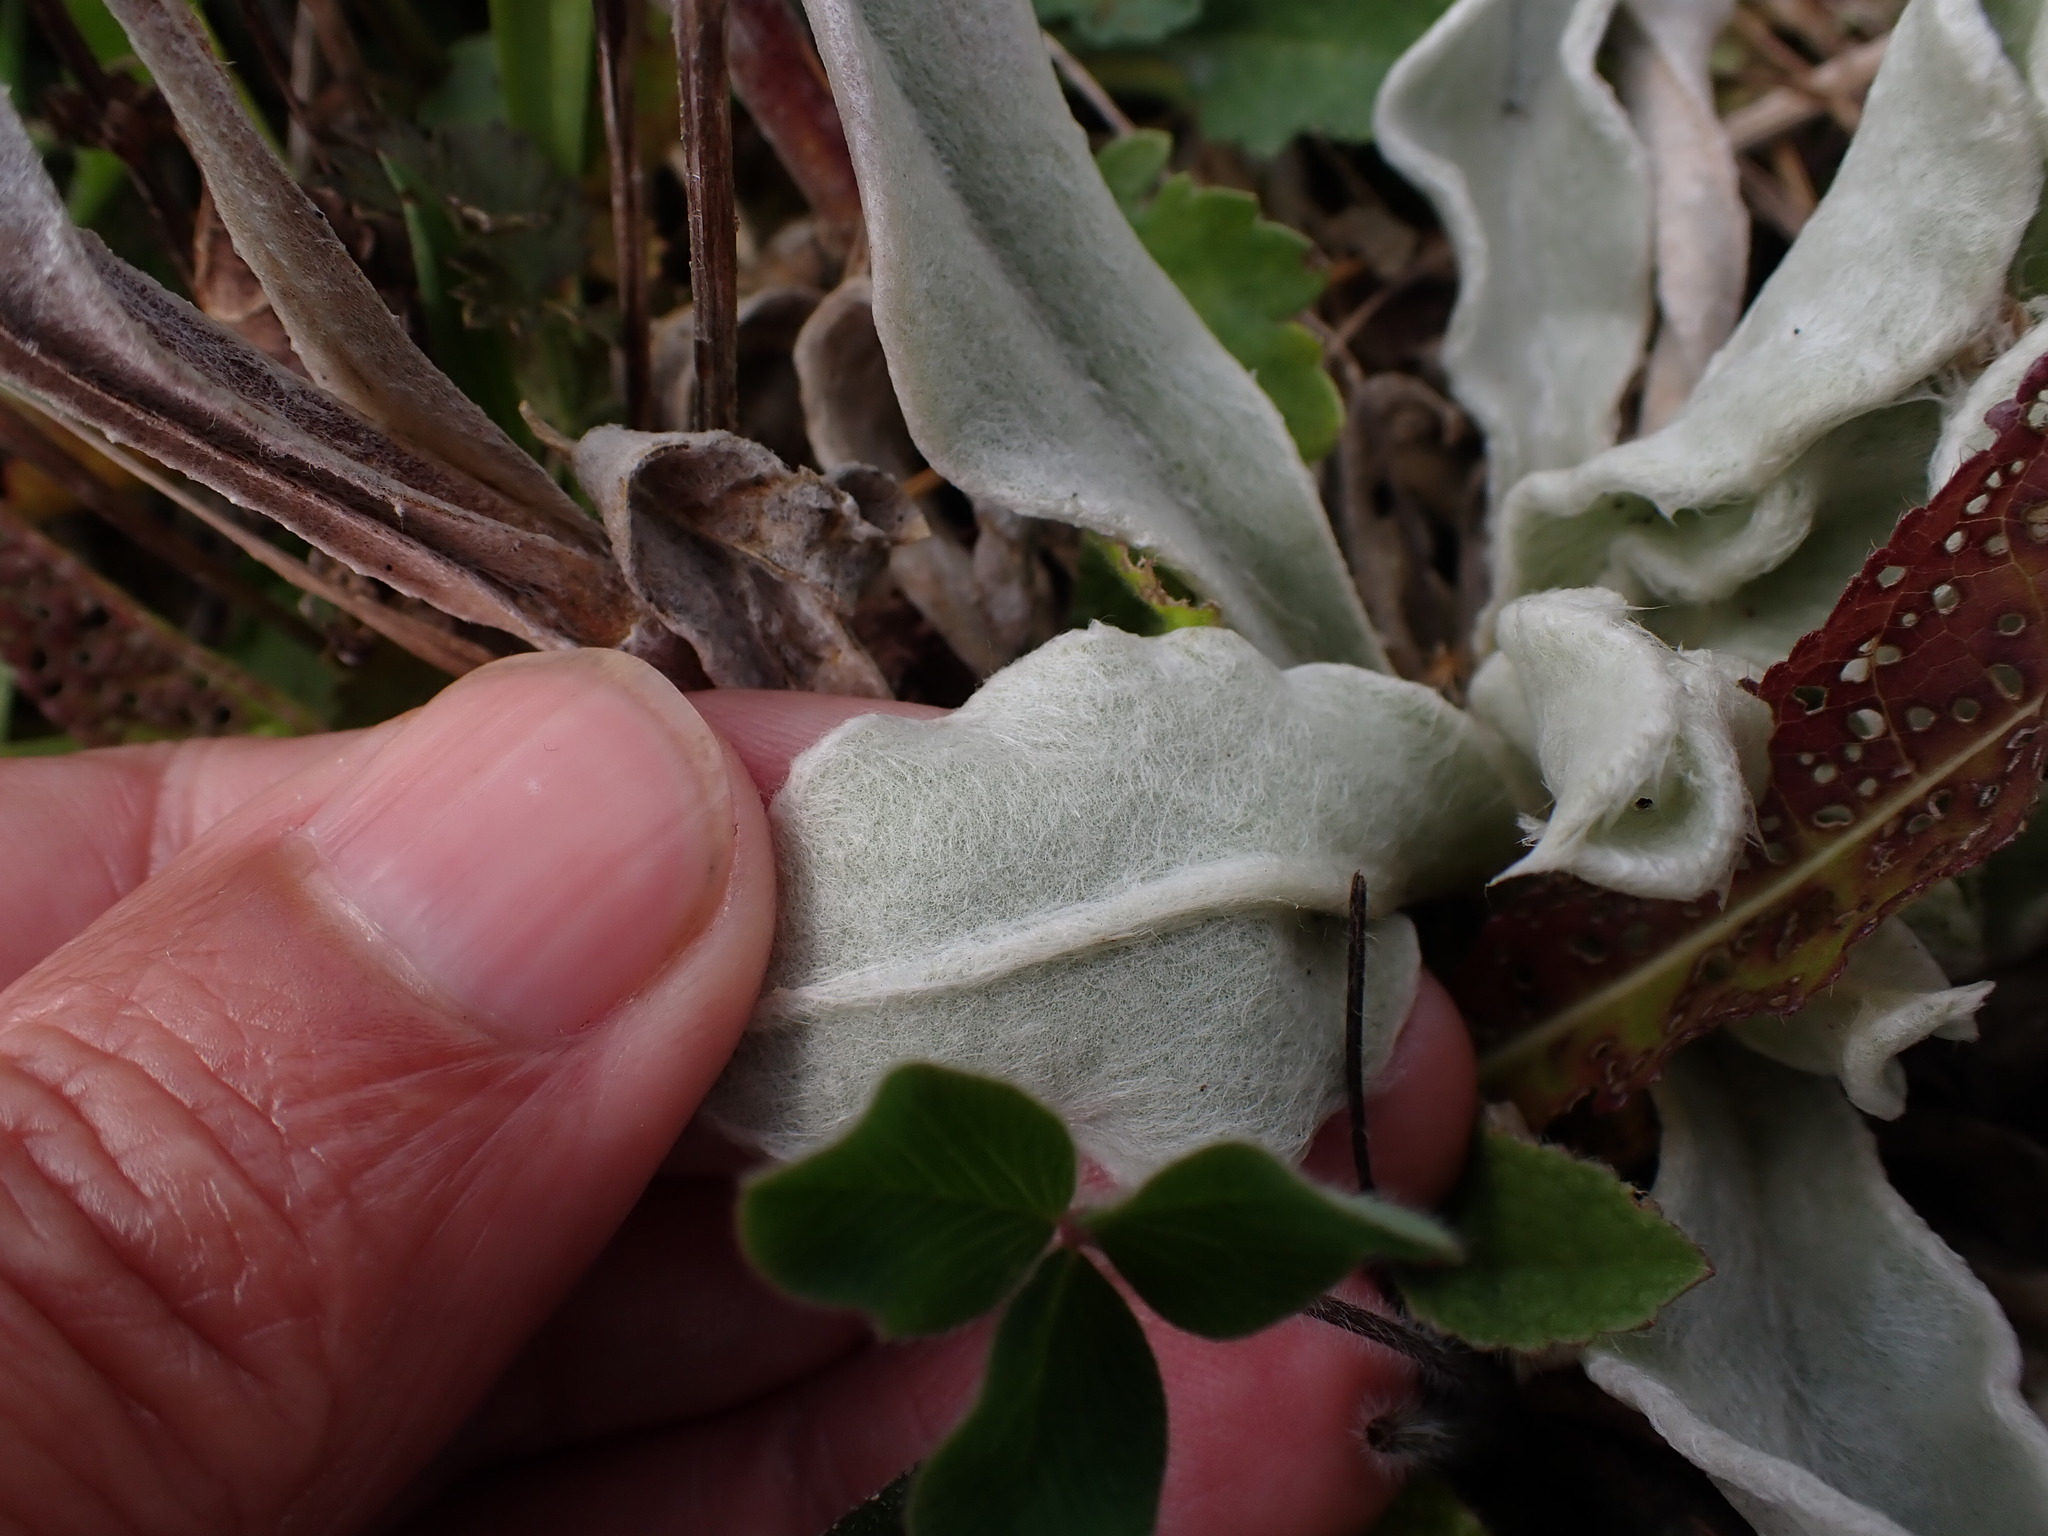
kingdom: Plantae
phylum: Tracheophyta
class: Magnoliopsida
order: Caryophyllales
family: Caryophyllaceae
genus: Silene
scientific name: Silene coronaria
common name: Rose campion
